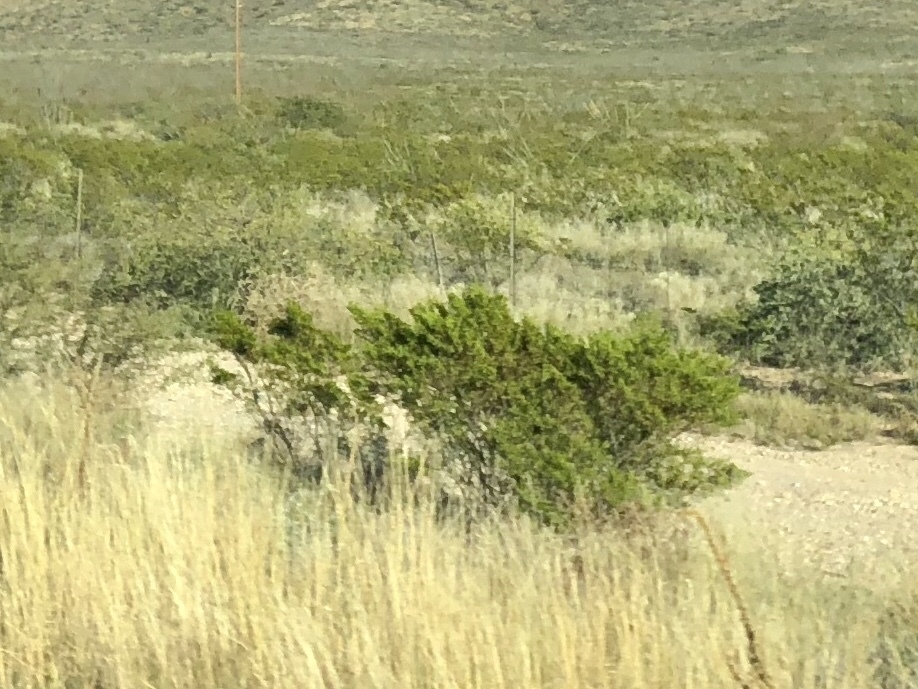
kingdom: Plantae
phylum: Tracheophyta
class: Magnoliopsida
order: Zygophyllales
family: Zygophyllaceae
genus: Larrea
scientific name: Larrea tridentata
